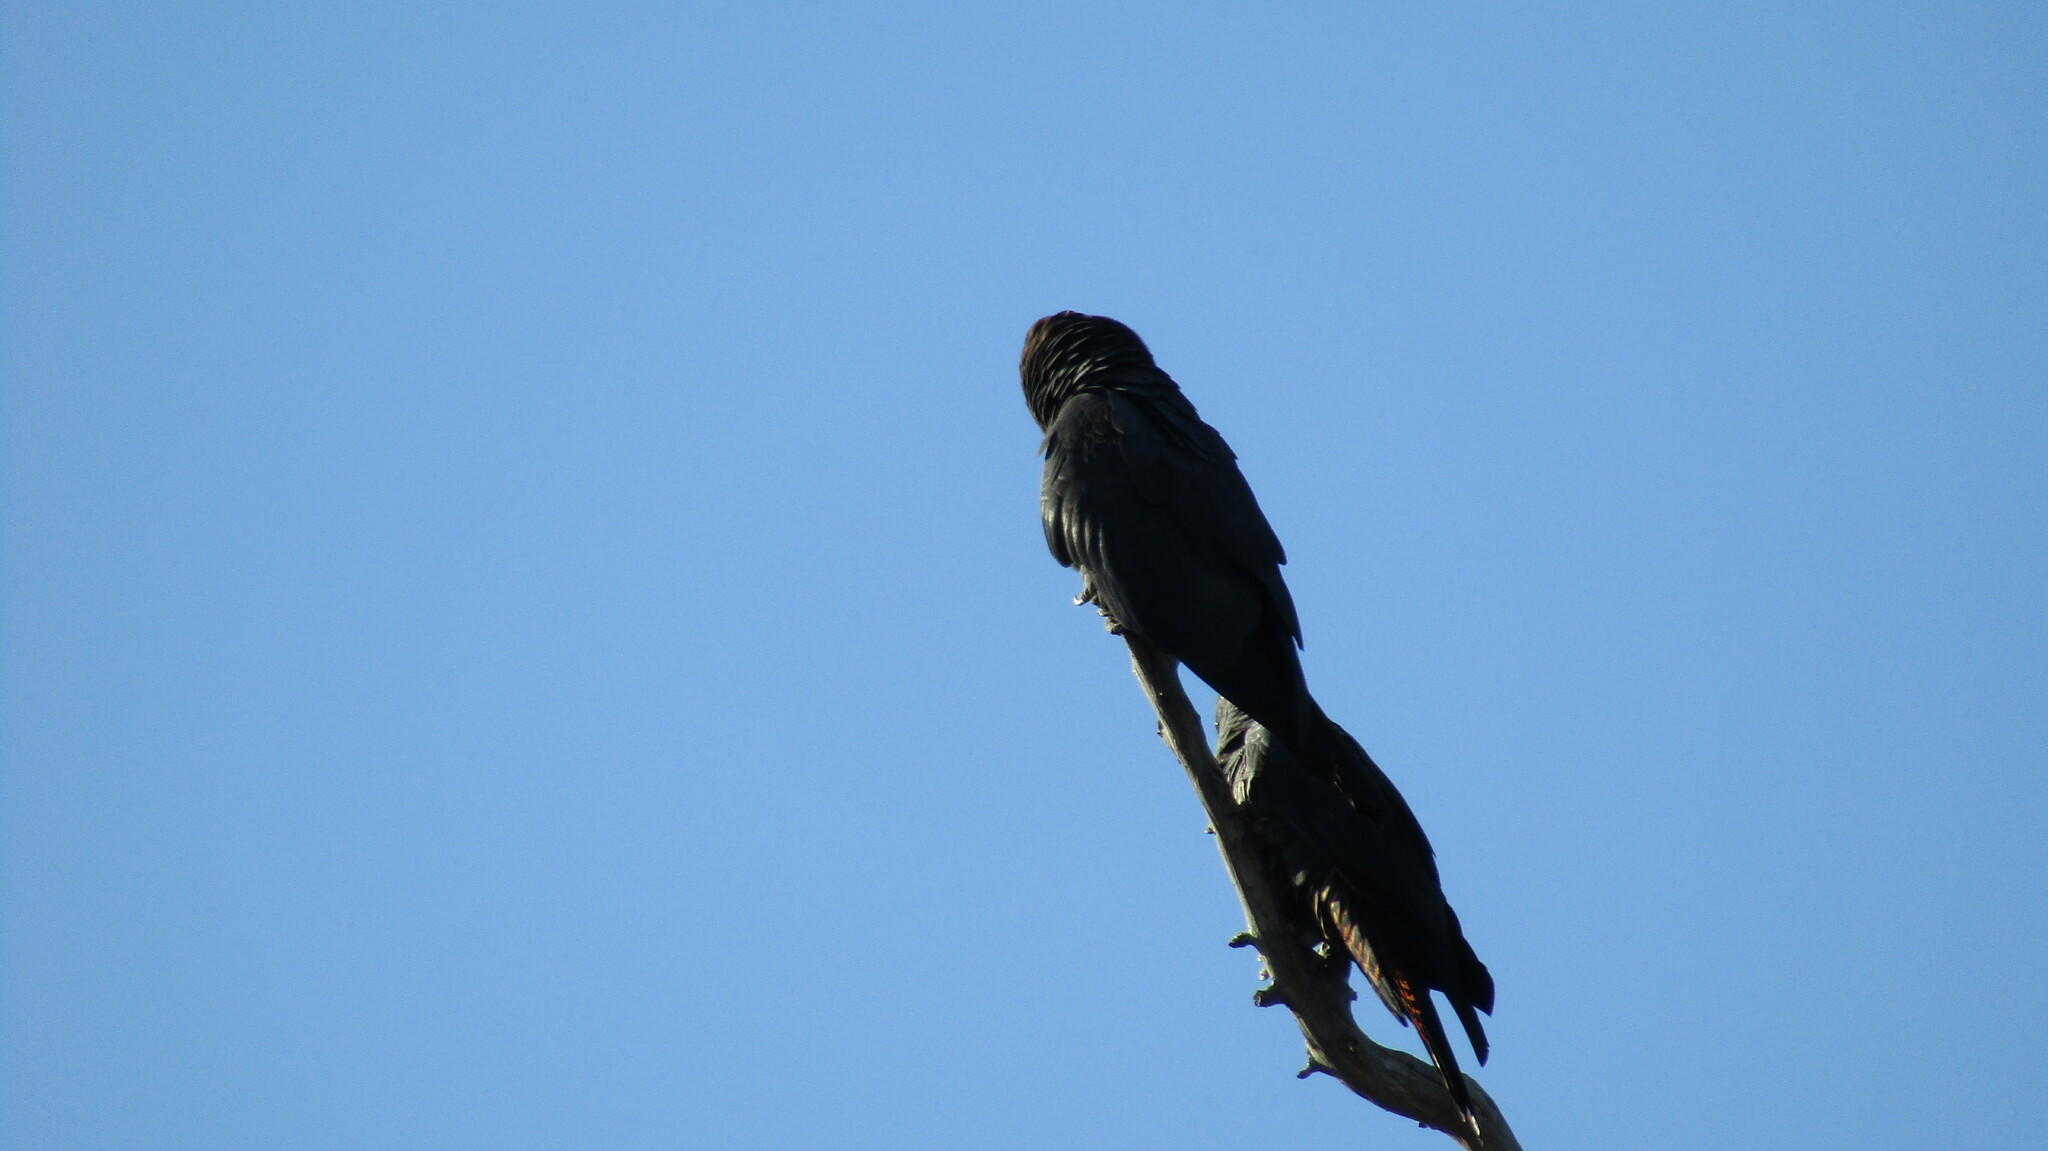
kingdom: Animalia
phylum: Chordata
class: Aves
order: Psittaciformes
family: Psittacidae
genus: Calyptorhynchus
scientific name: Calyptorhynchus banksii
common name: Red-tailed black cockatoo
